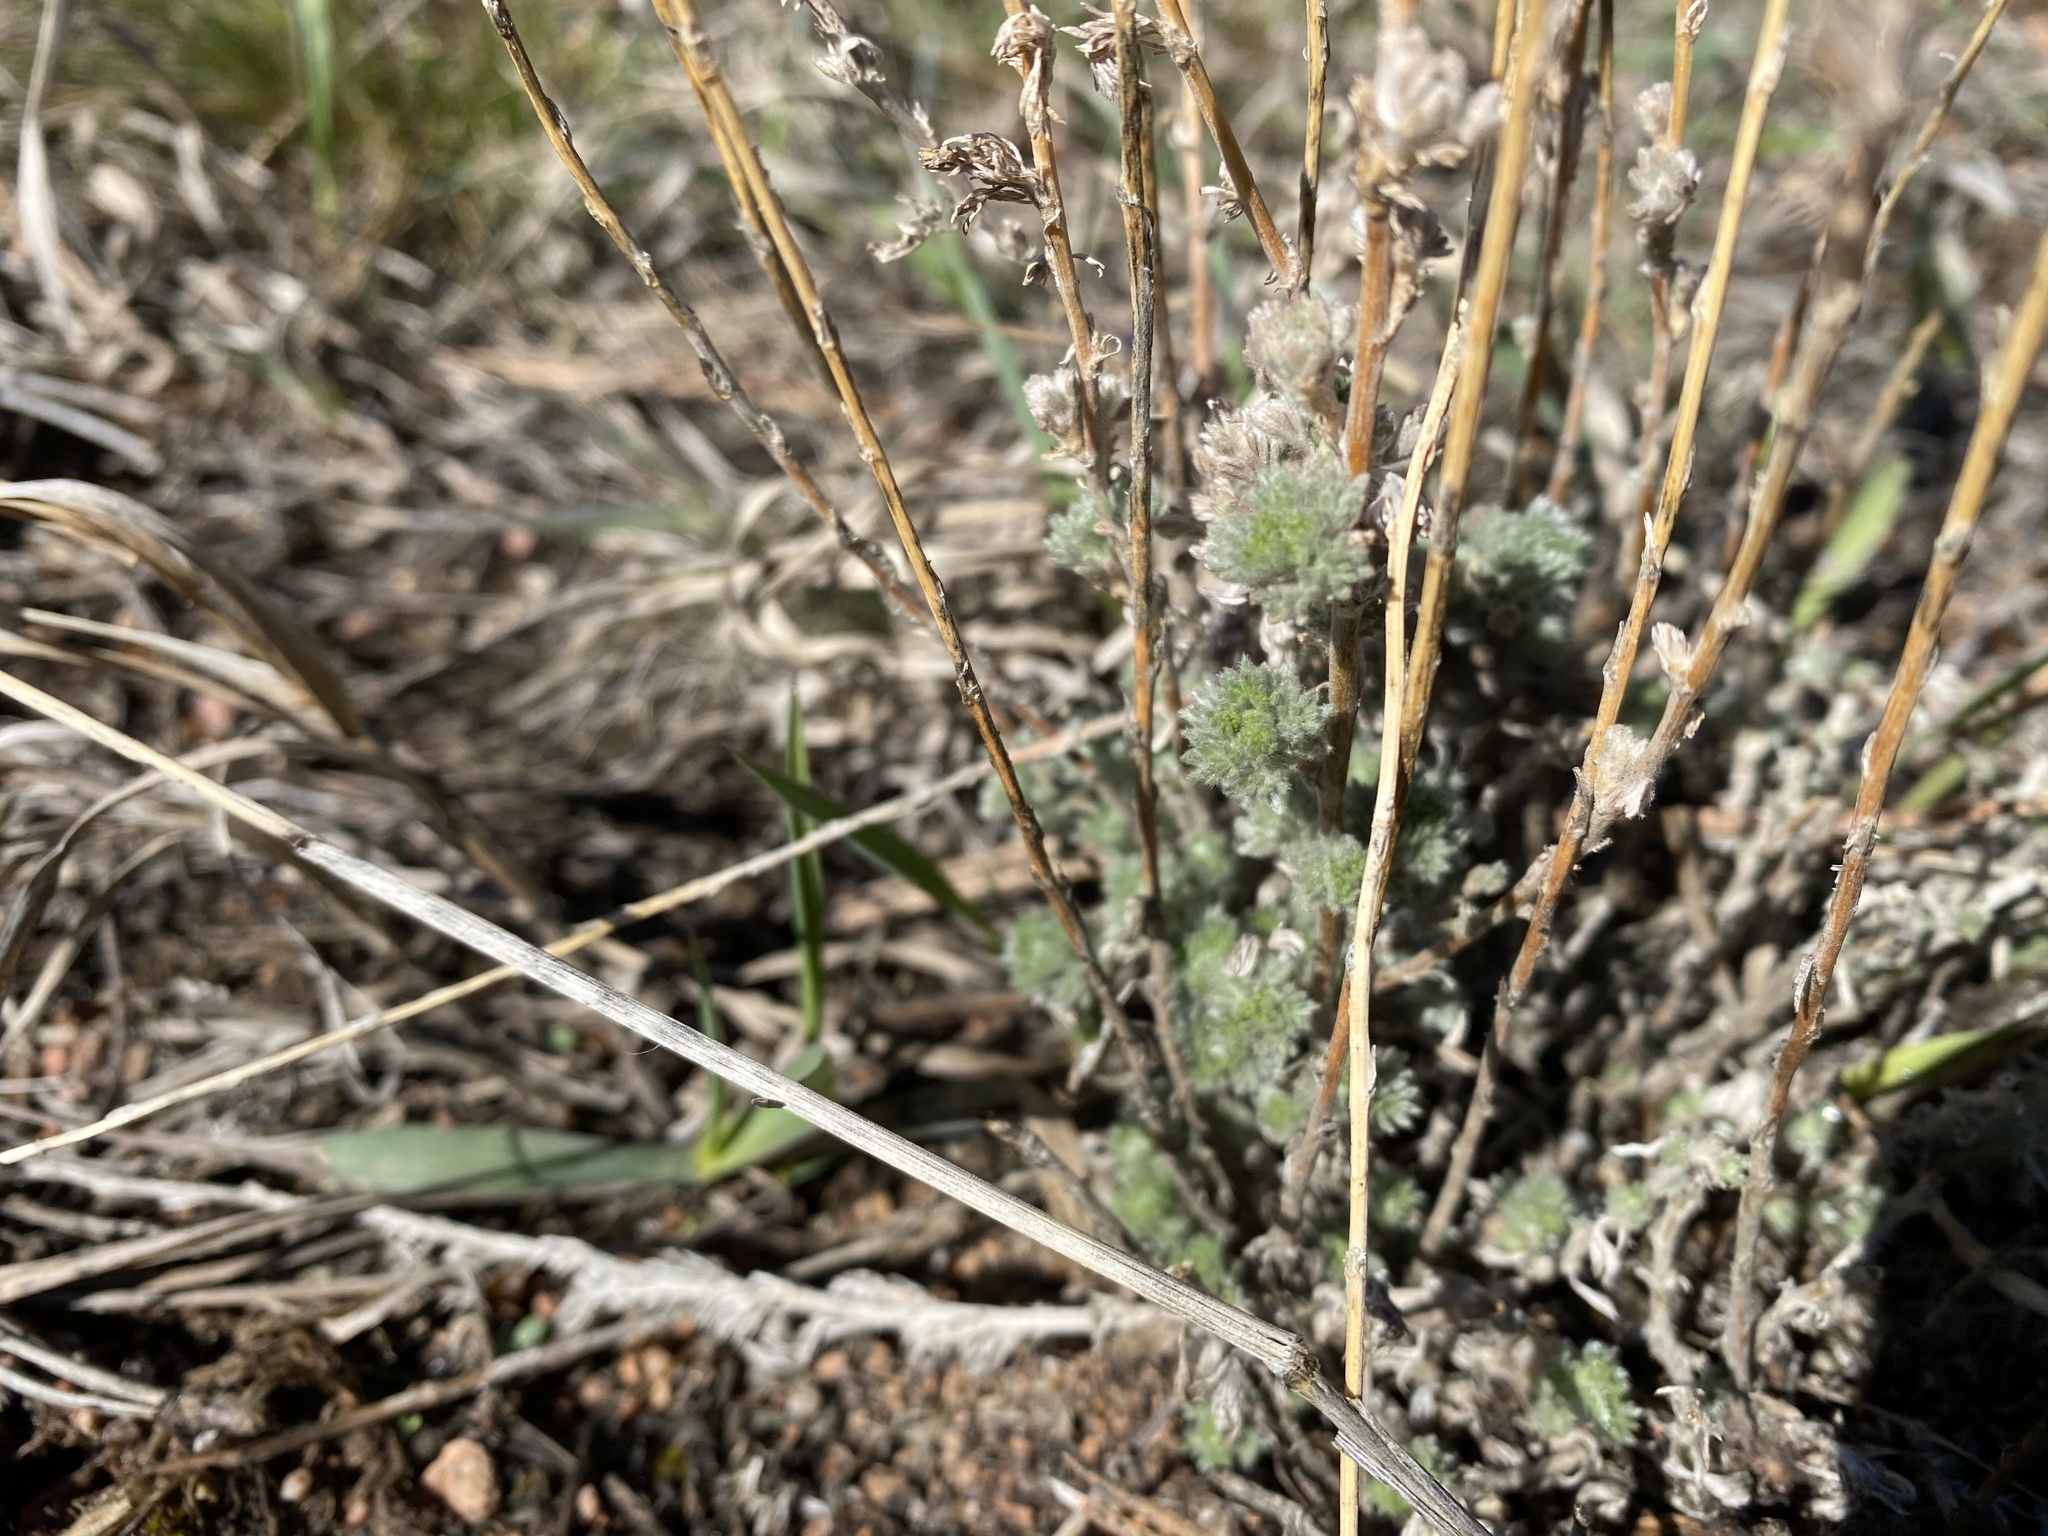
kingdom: Plantae
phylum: Tracheophyta
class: Magnoliopsida
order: Asterales
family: Asteraceae
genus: Artemisia
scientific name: Artemisia frigida
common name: Prairie sagewort
